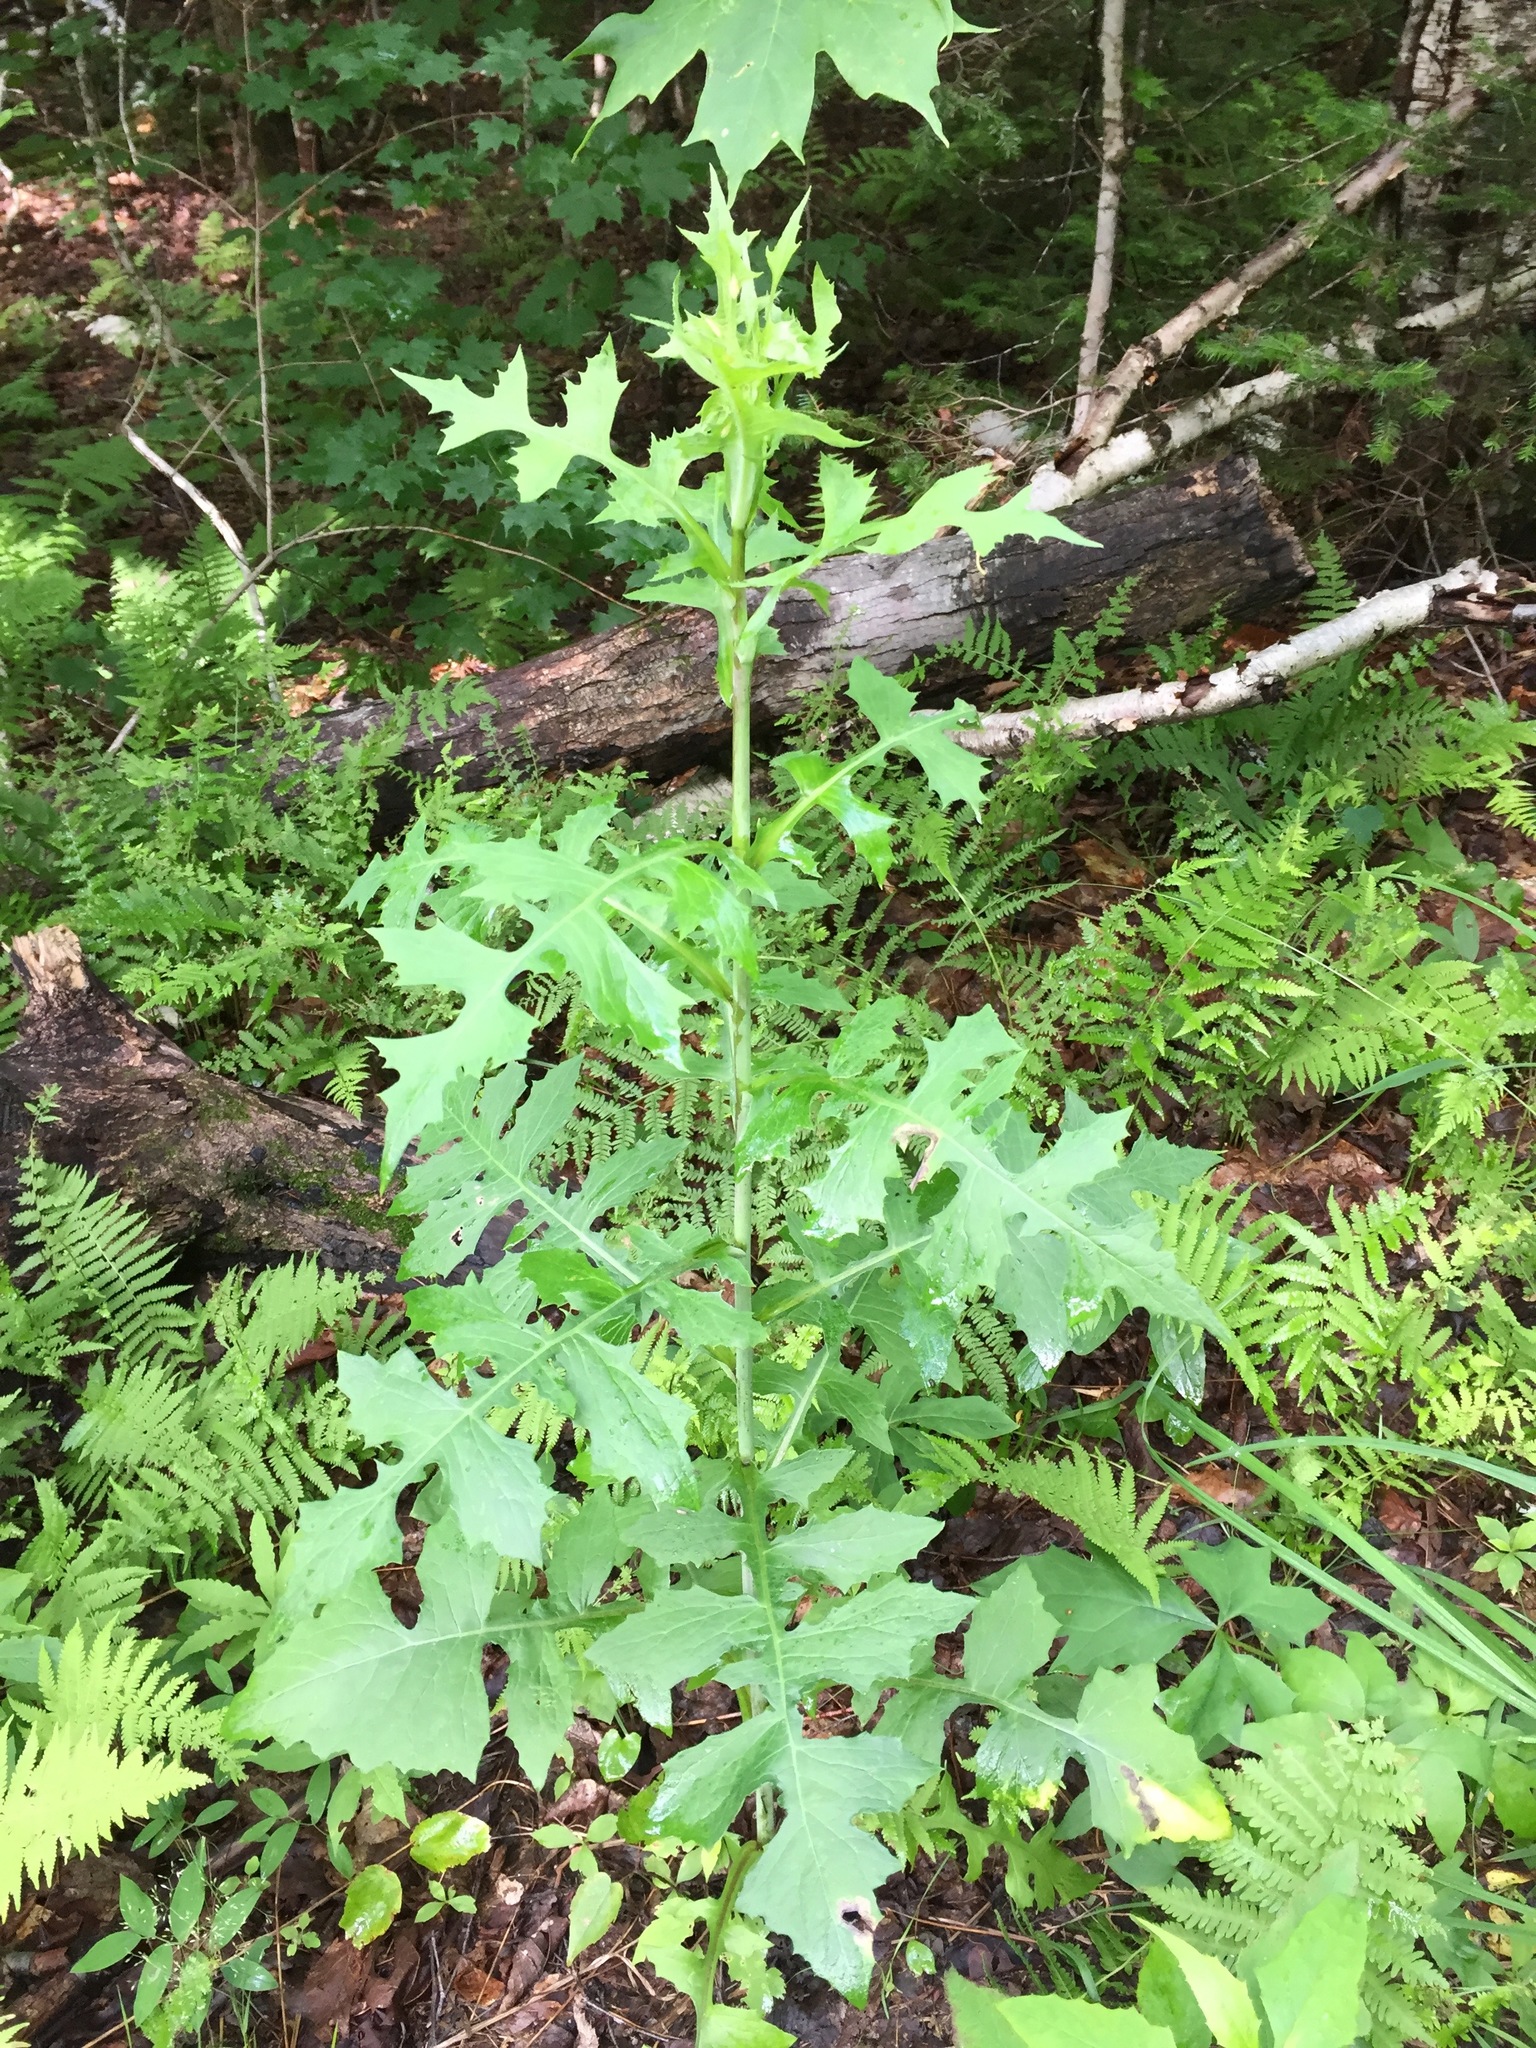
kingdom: Plantae
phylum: Tracheophyta
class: Magnoliopsida
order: Asterales
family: Asteraceae
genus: Lactuca
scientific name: Lactuca biennis
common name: Blue wood lettuce
